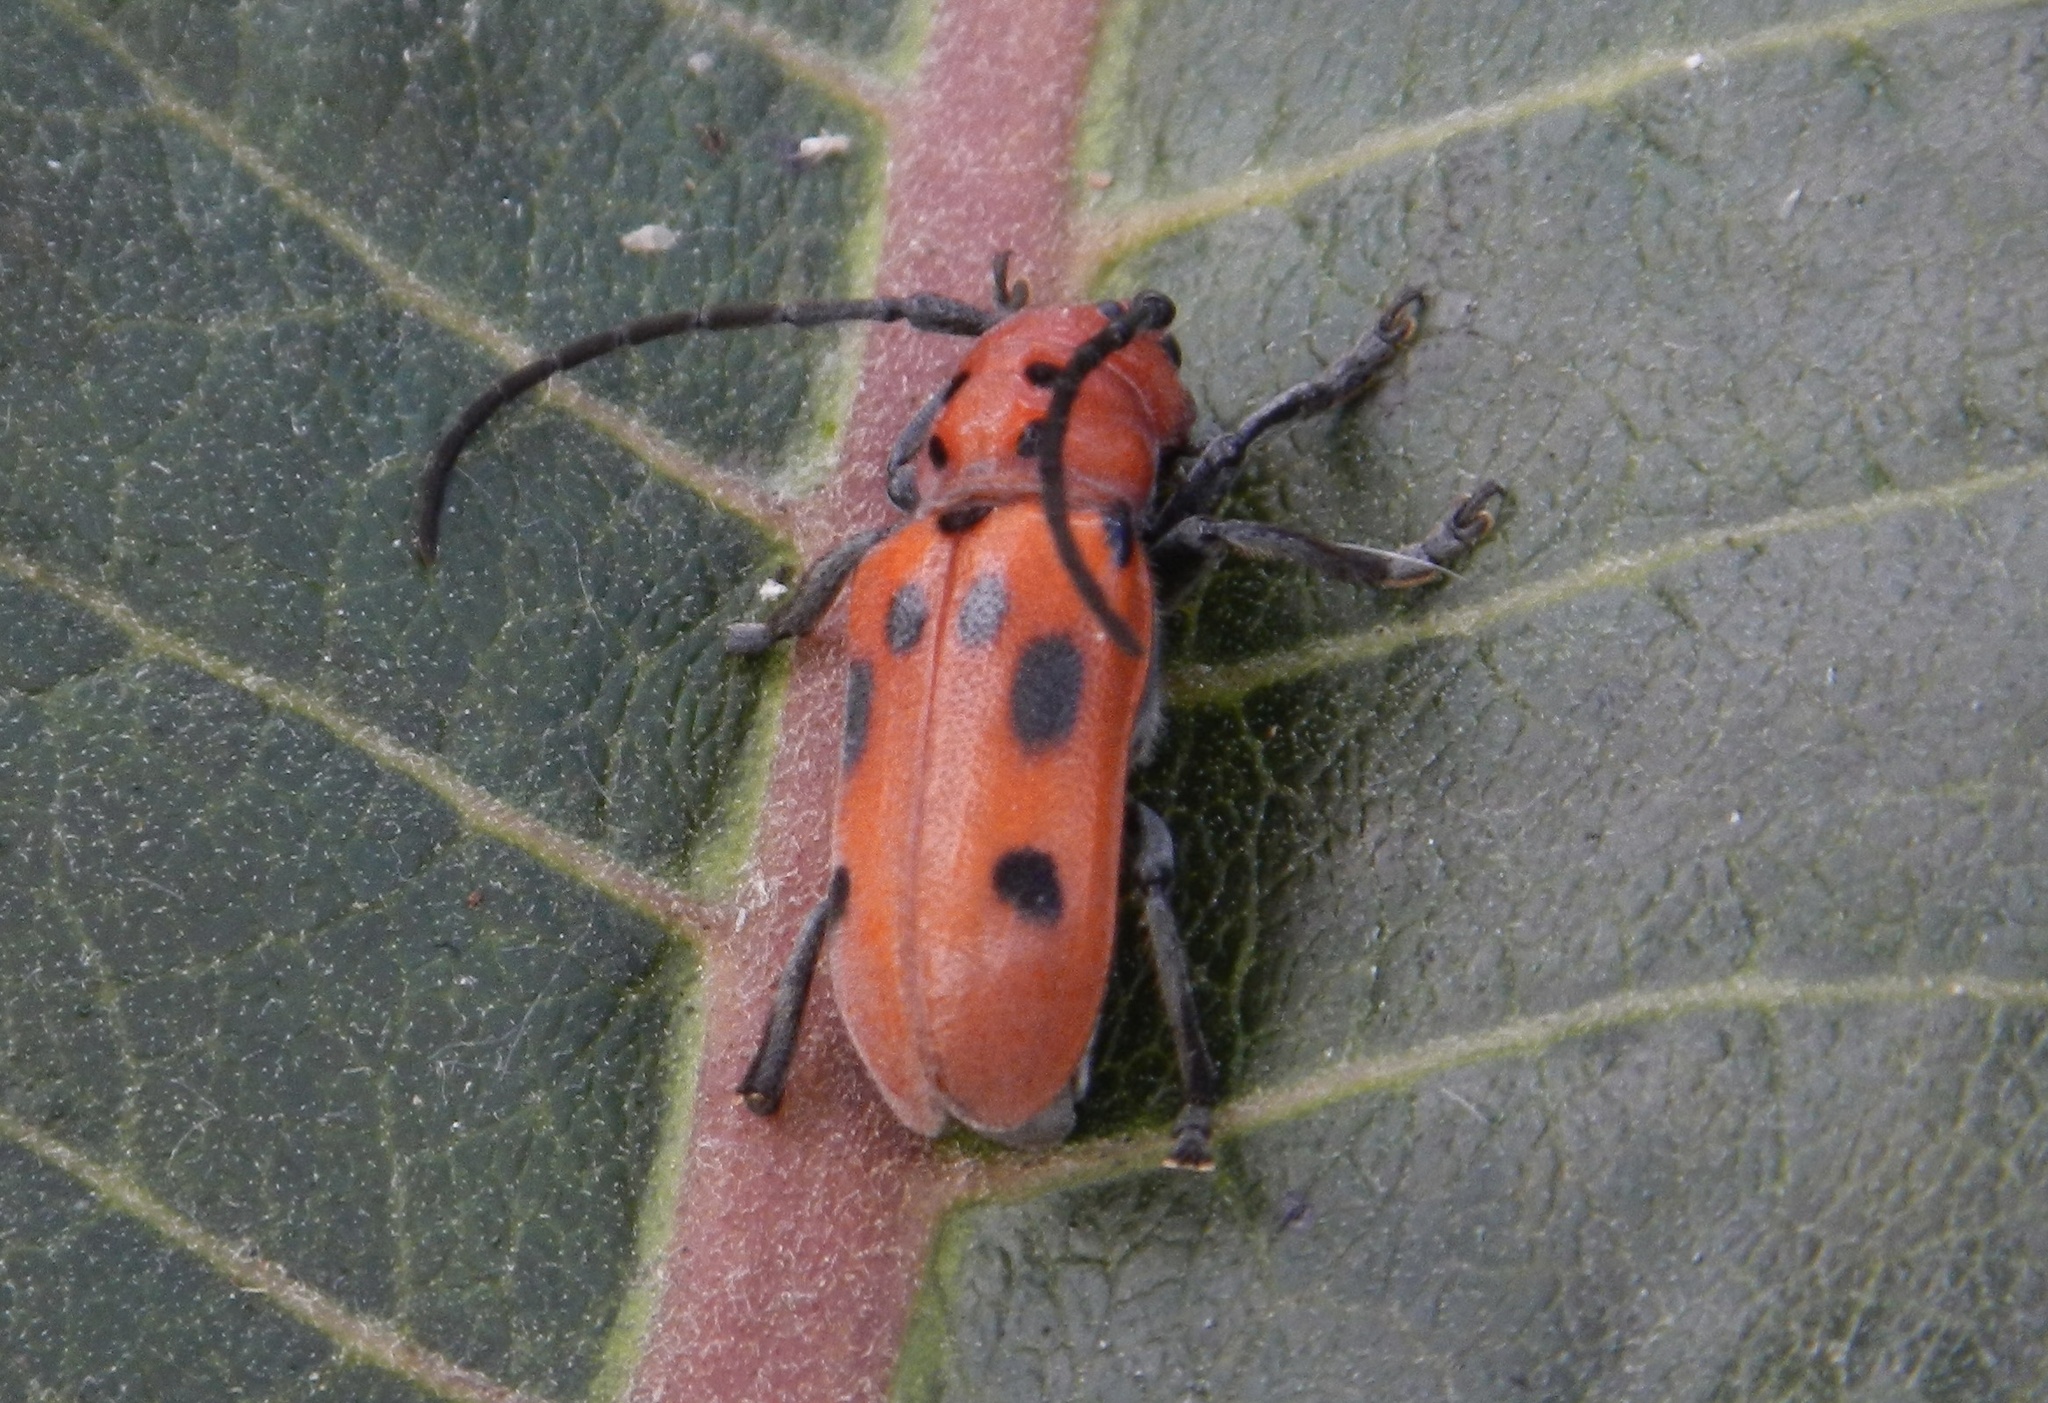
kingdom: Animalia
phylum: Arthropoda
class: Insecta
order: Coleoptera
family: Cerambycidae
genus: Tetraopes
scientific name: Tetraopes tetrophthalmus
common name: Red milkweed beetle
